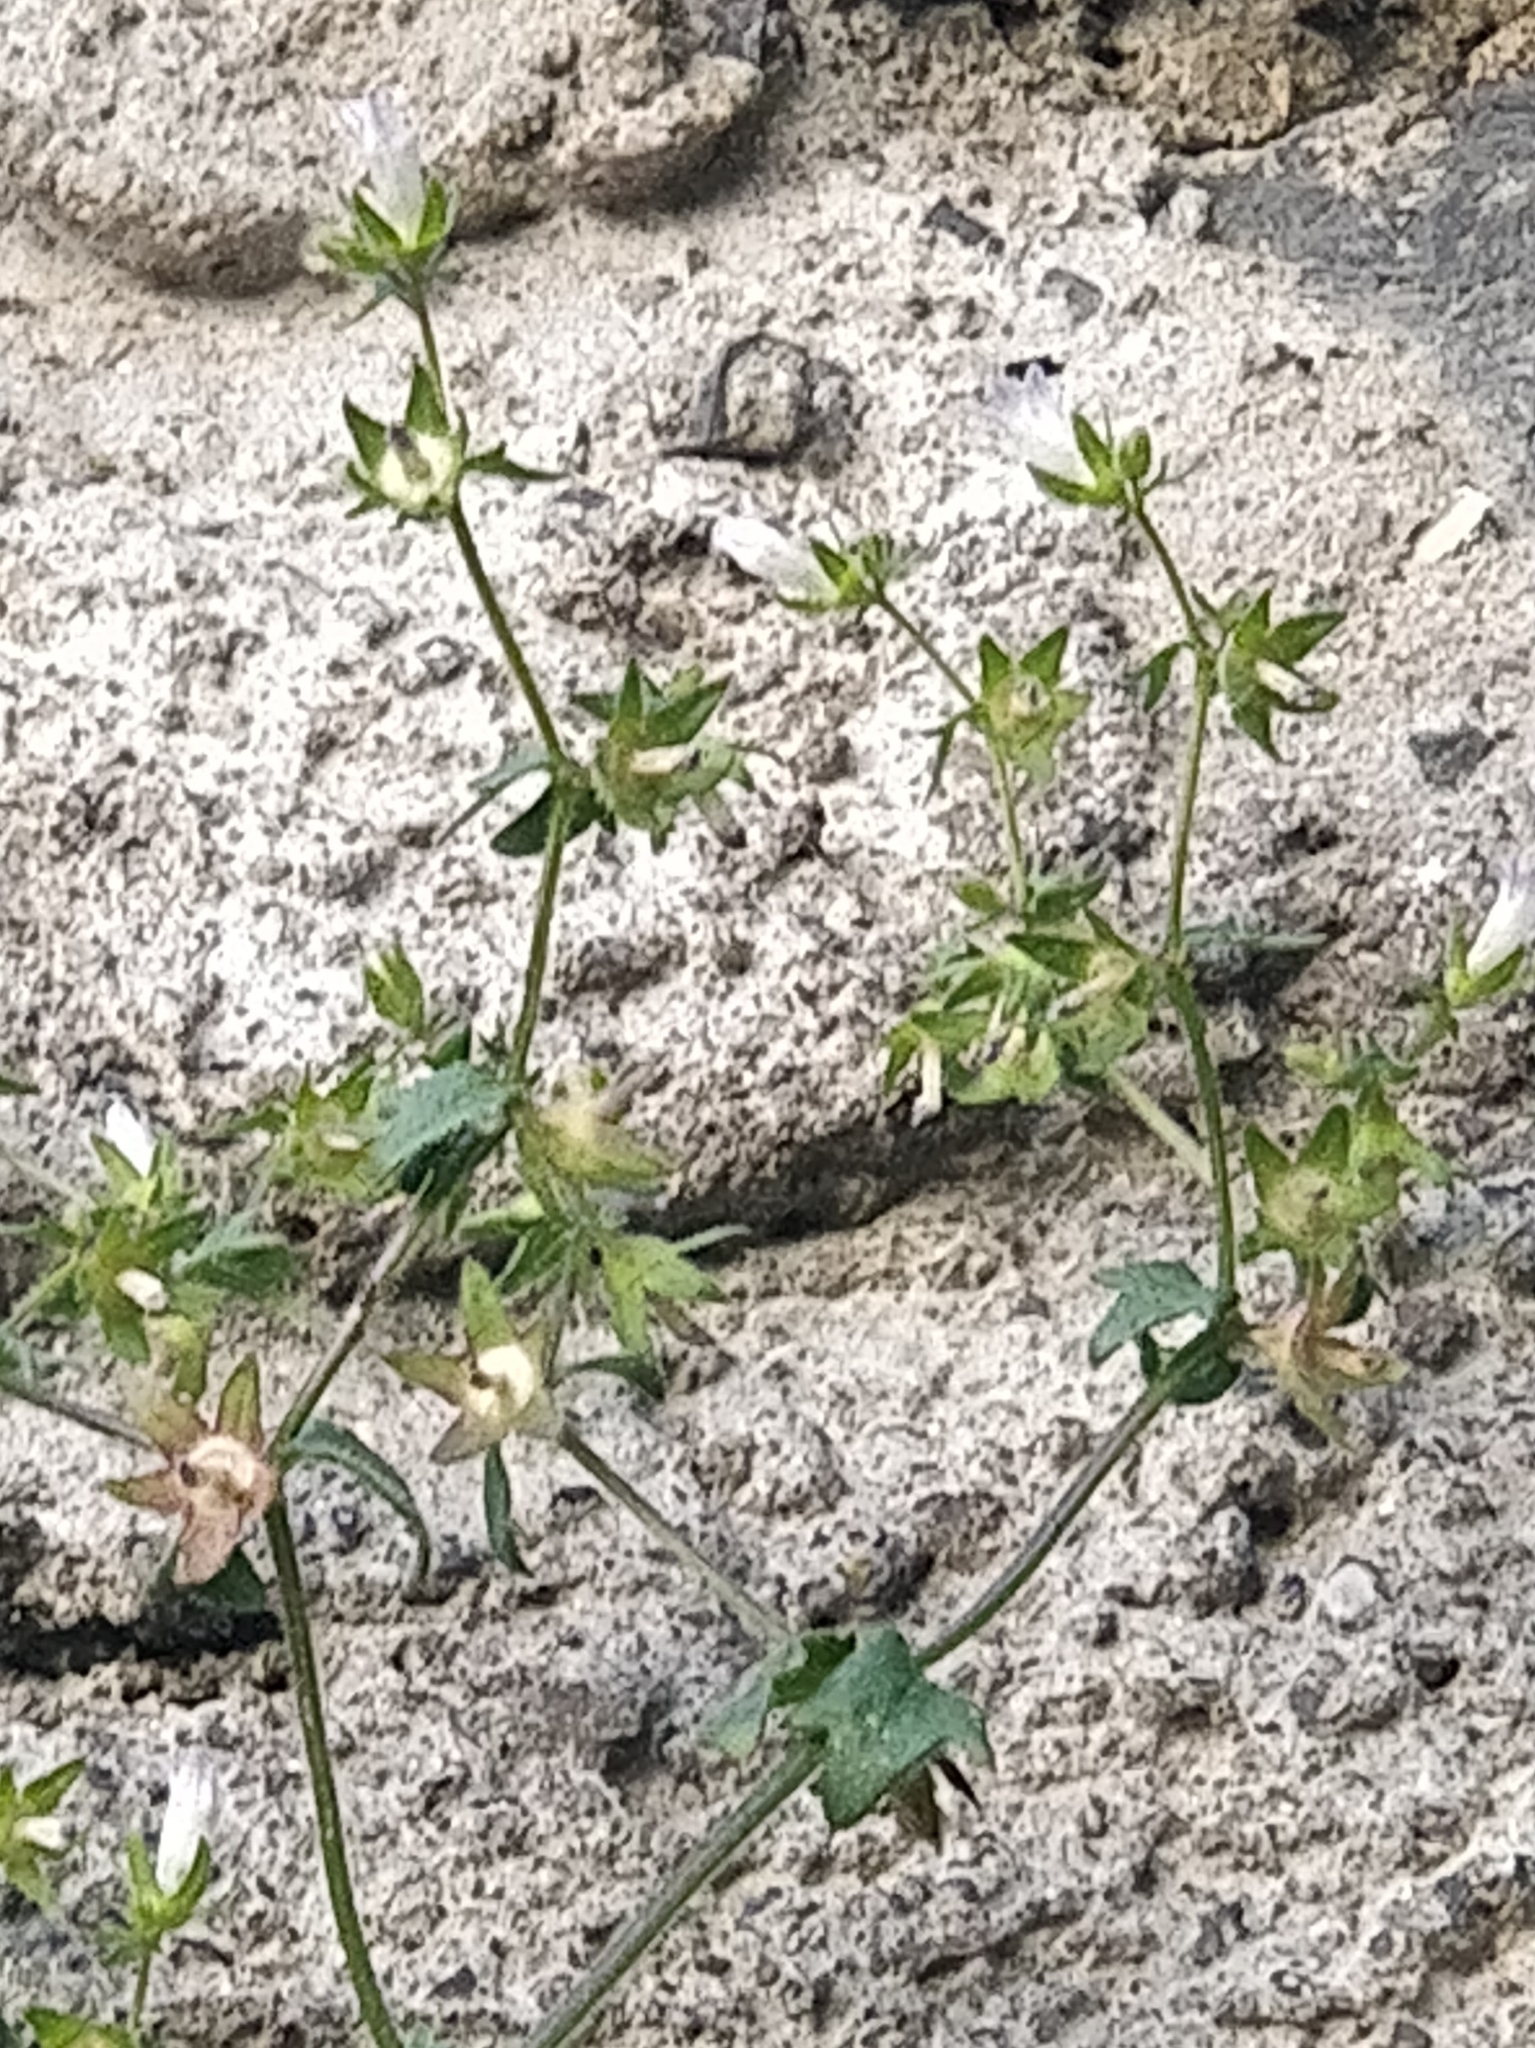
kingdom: Plantae
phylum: Tracheophyta
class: Magnoliopsida
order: Asterales
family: Campanulaceae
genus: Campanula
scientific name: Campanula erinus
